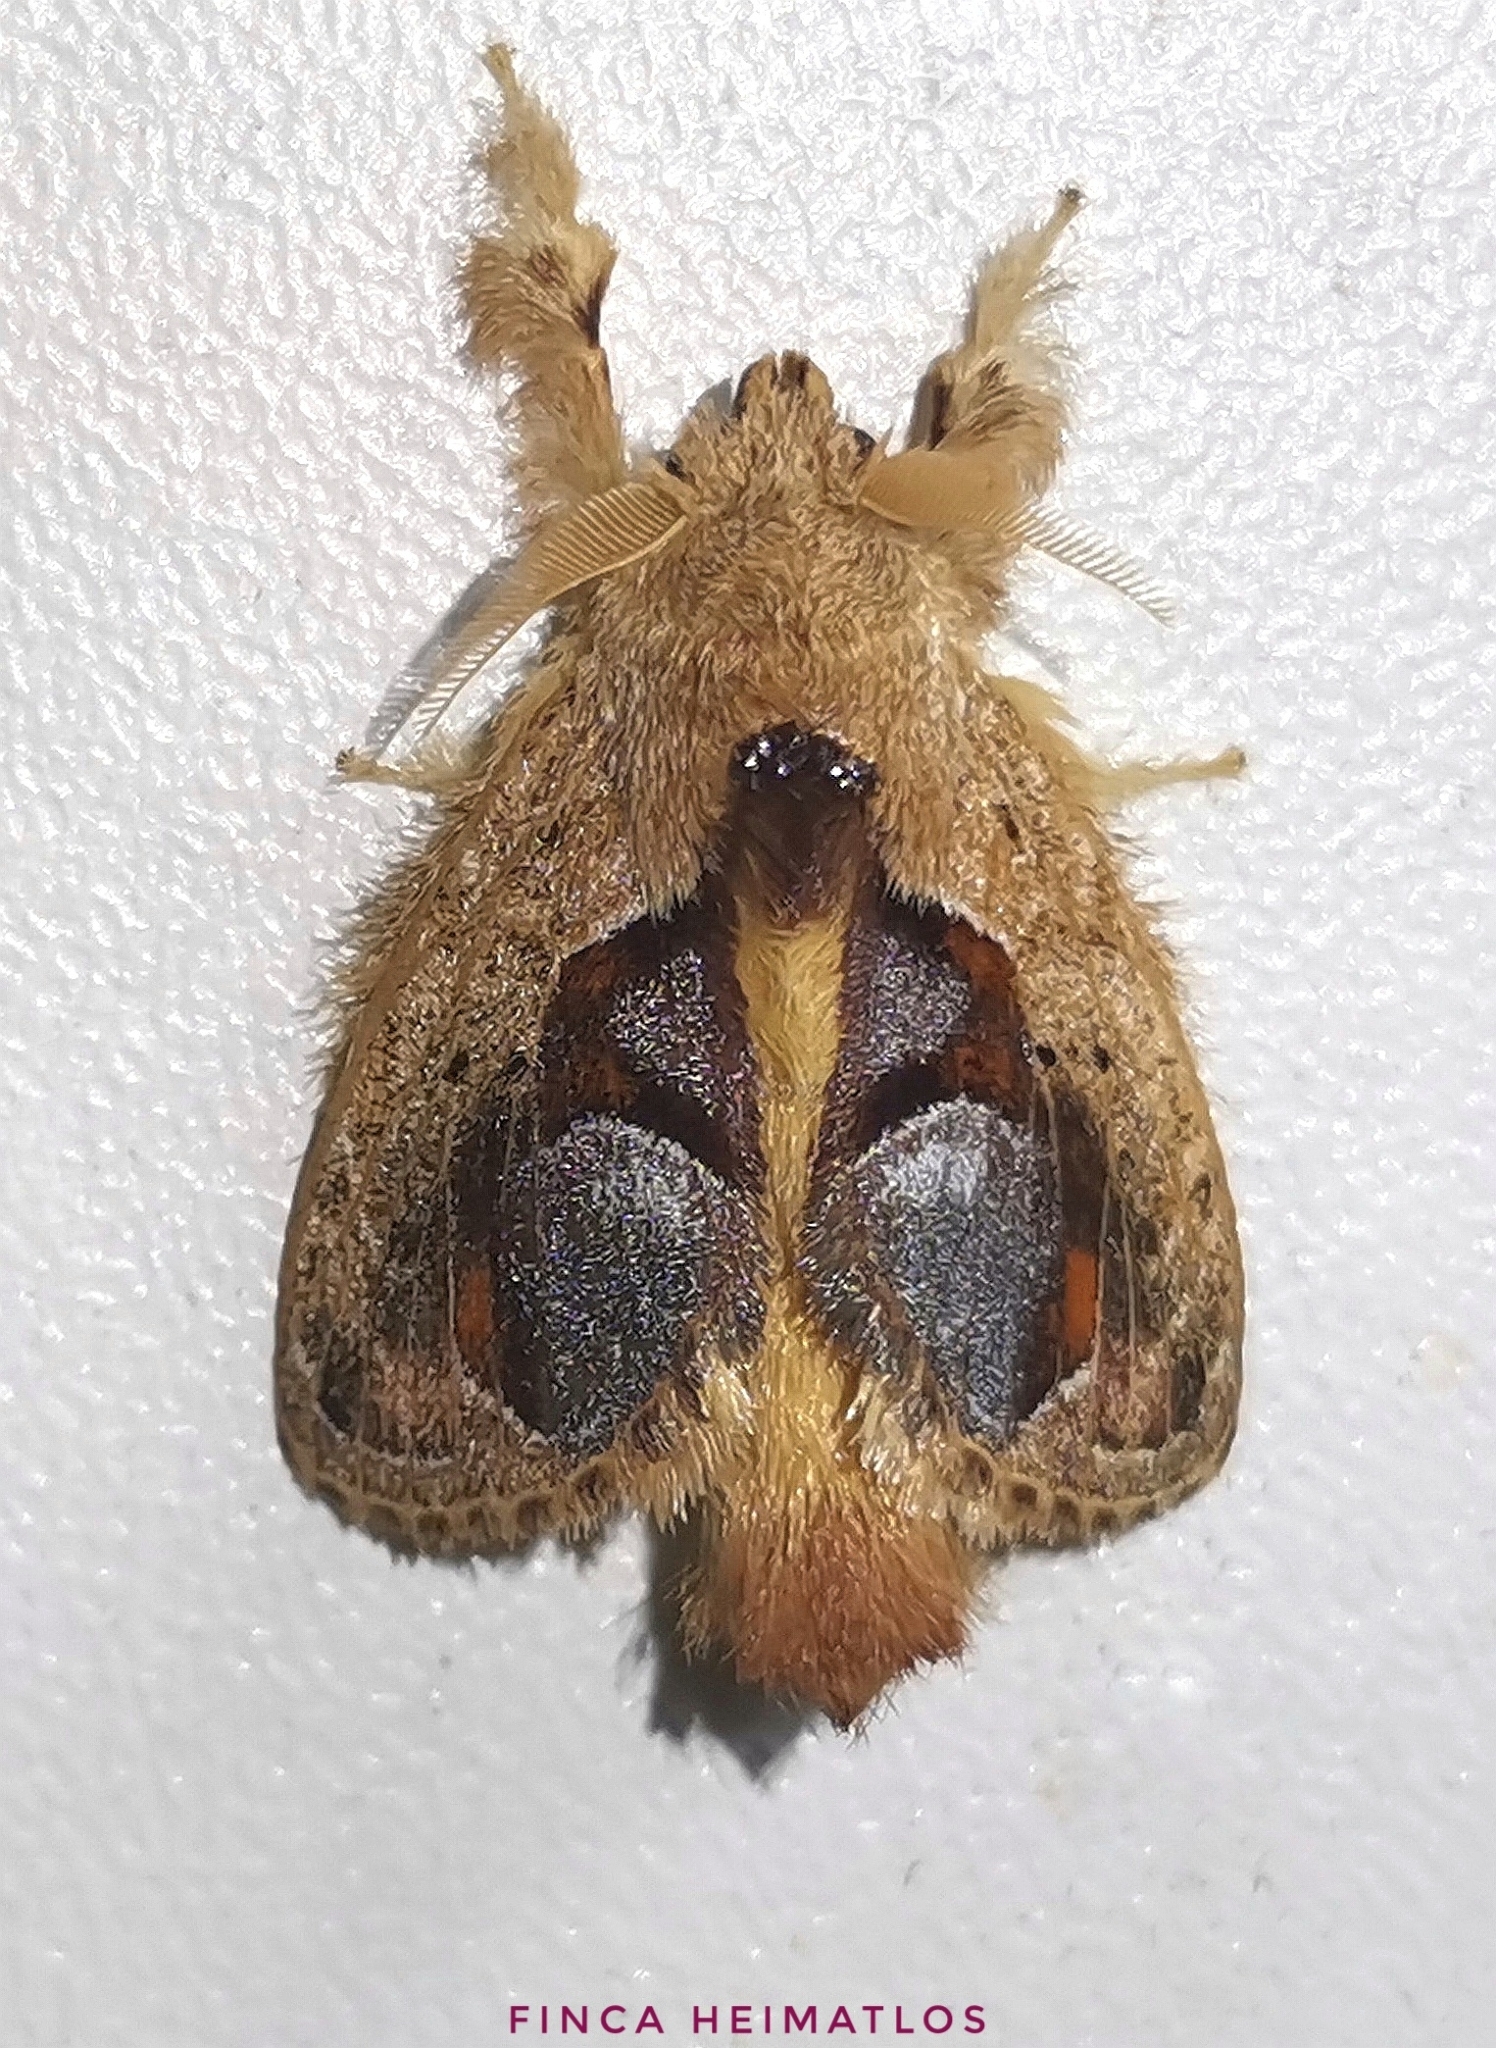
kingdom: Animalia
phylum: Arthropoda
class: Insecta
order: Lepidoptera
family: Lasiocampidae
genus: Nesara
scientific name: Nesara
